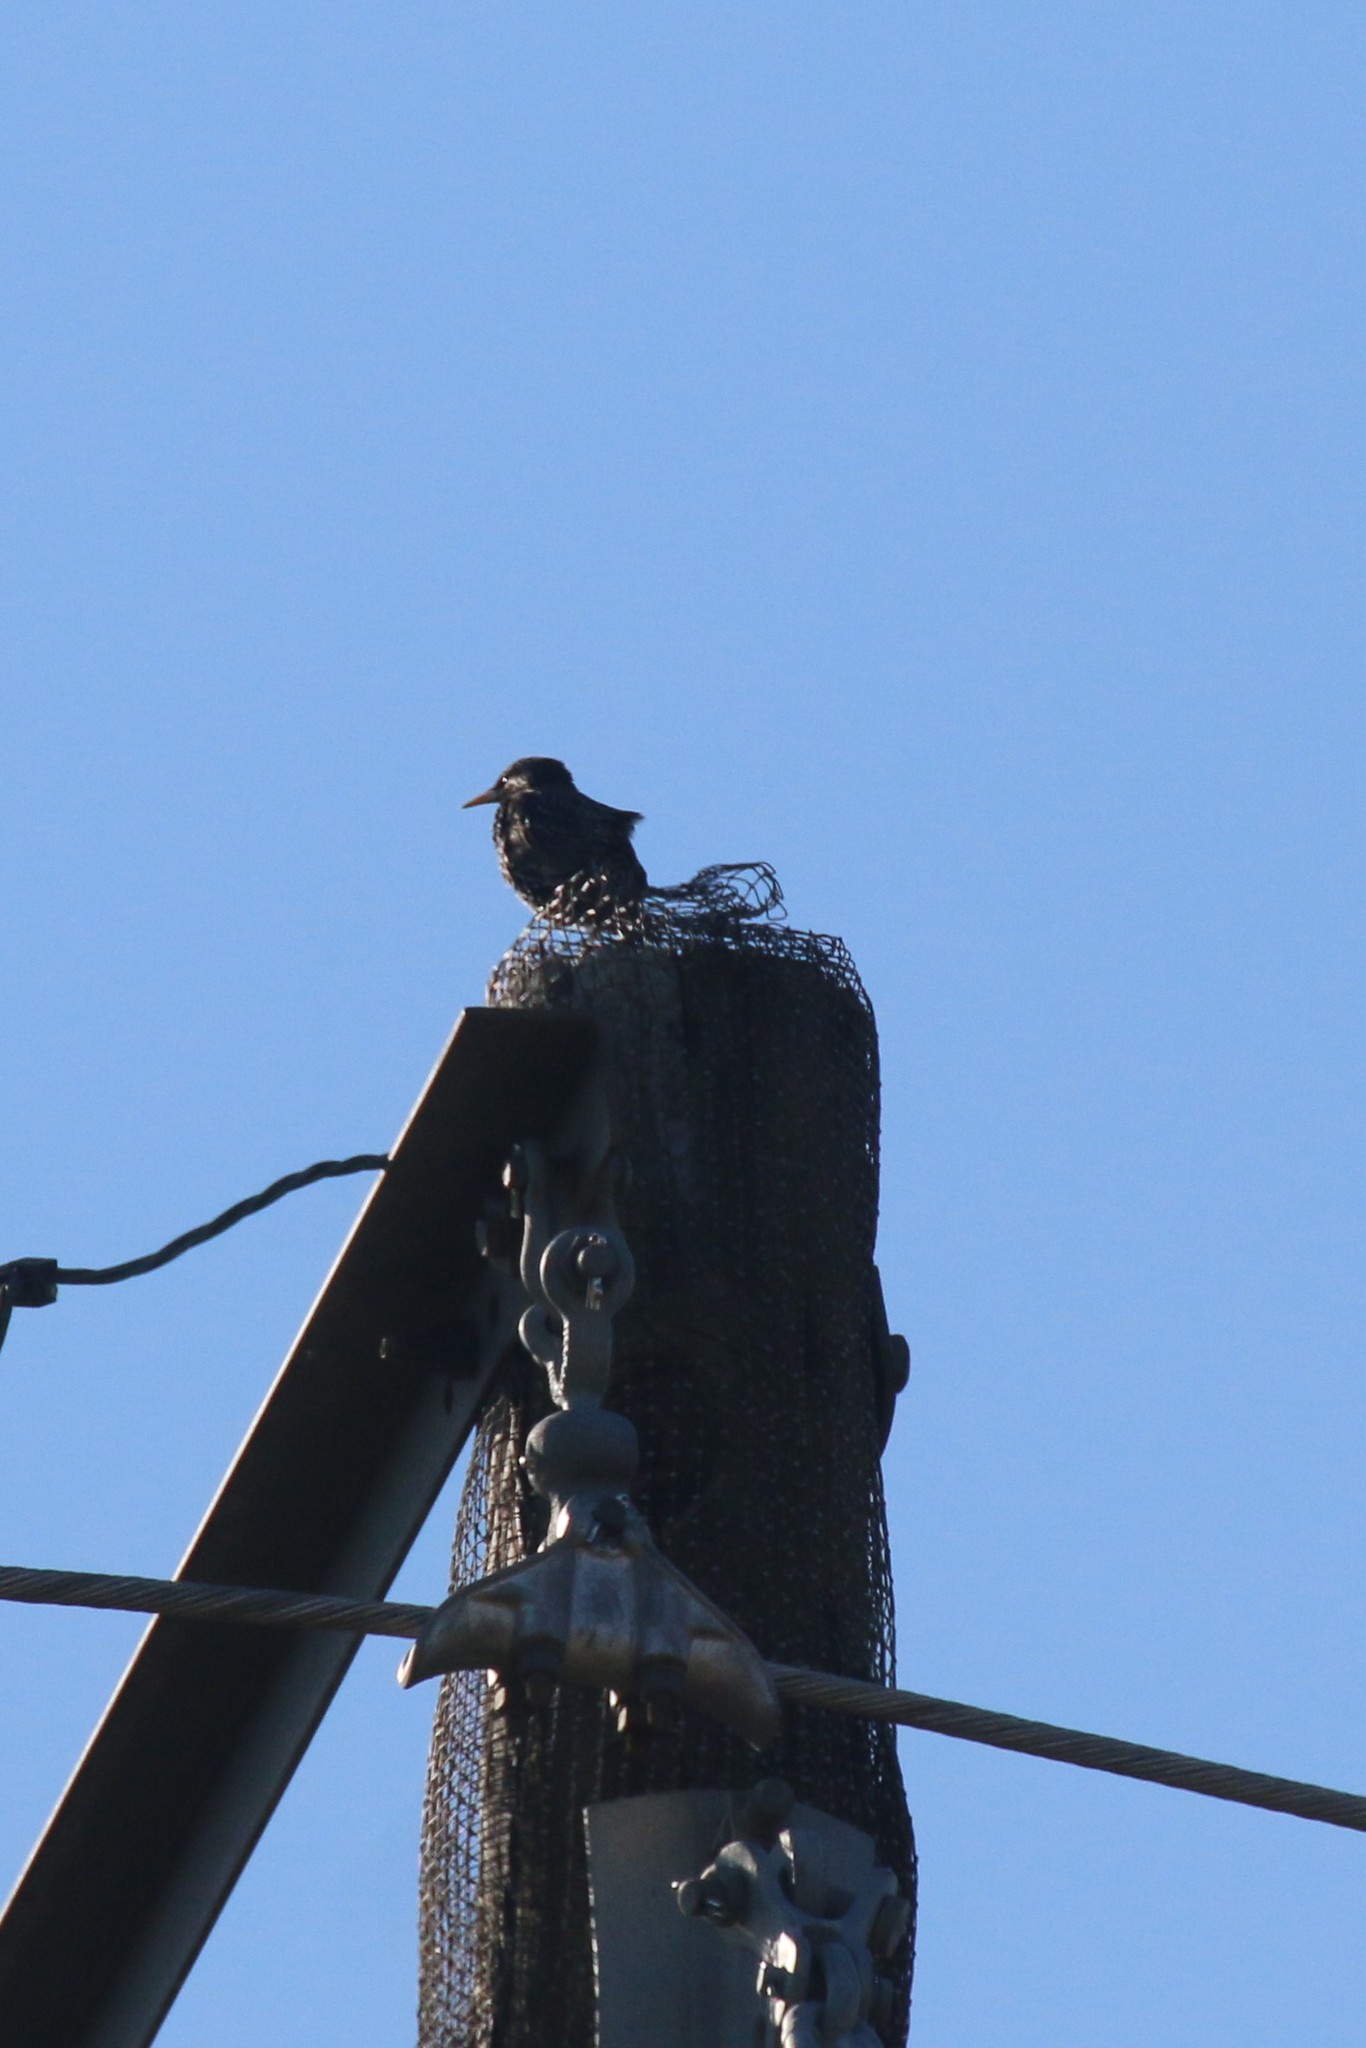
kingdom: Animalia
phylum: Chordata
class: Aves
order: Passeriformes
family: Sturnidae
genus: Sturnus
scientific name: Sturnus vulgaris
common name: Common starling
